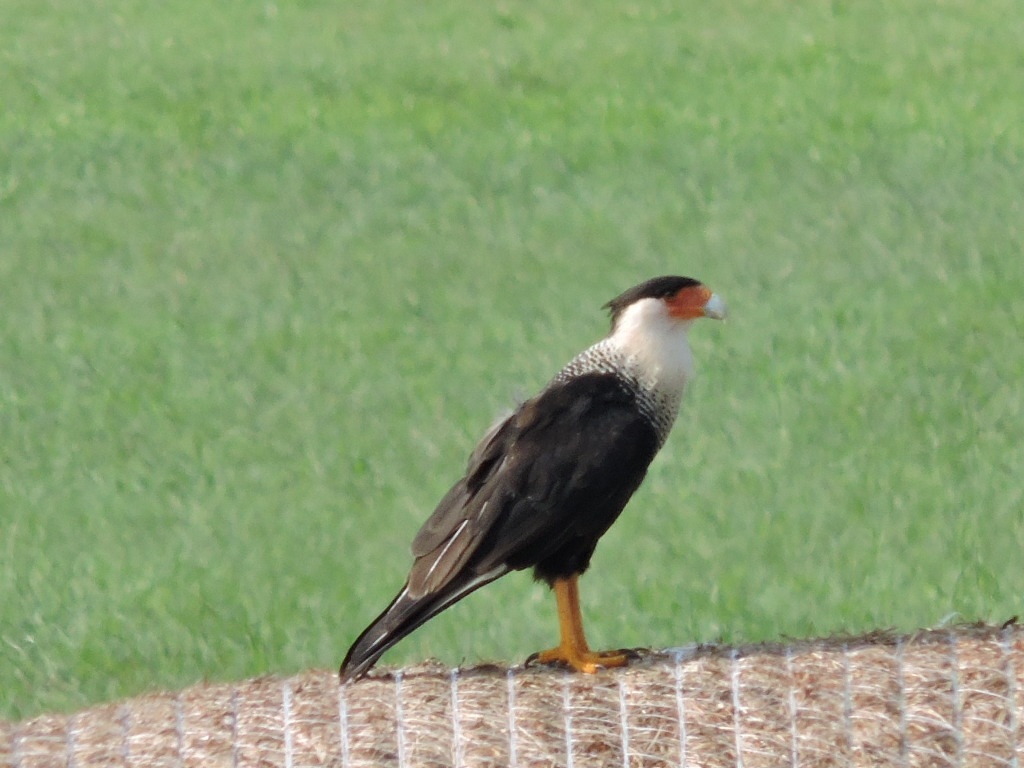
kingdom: Animalia
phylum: Chordata
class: Aves
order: Falconiformes
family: Falconidae
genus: Caracara
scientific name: Caracara plancus
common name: Southern caracara
